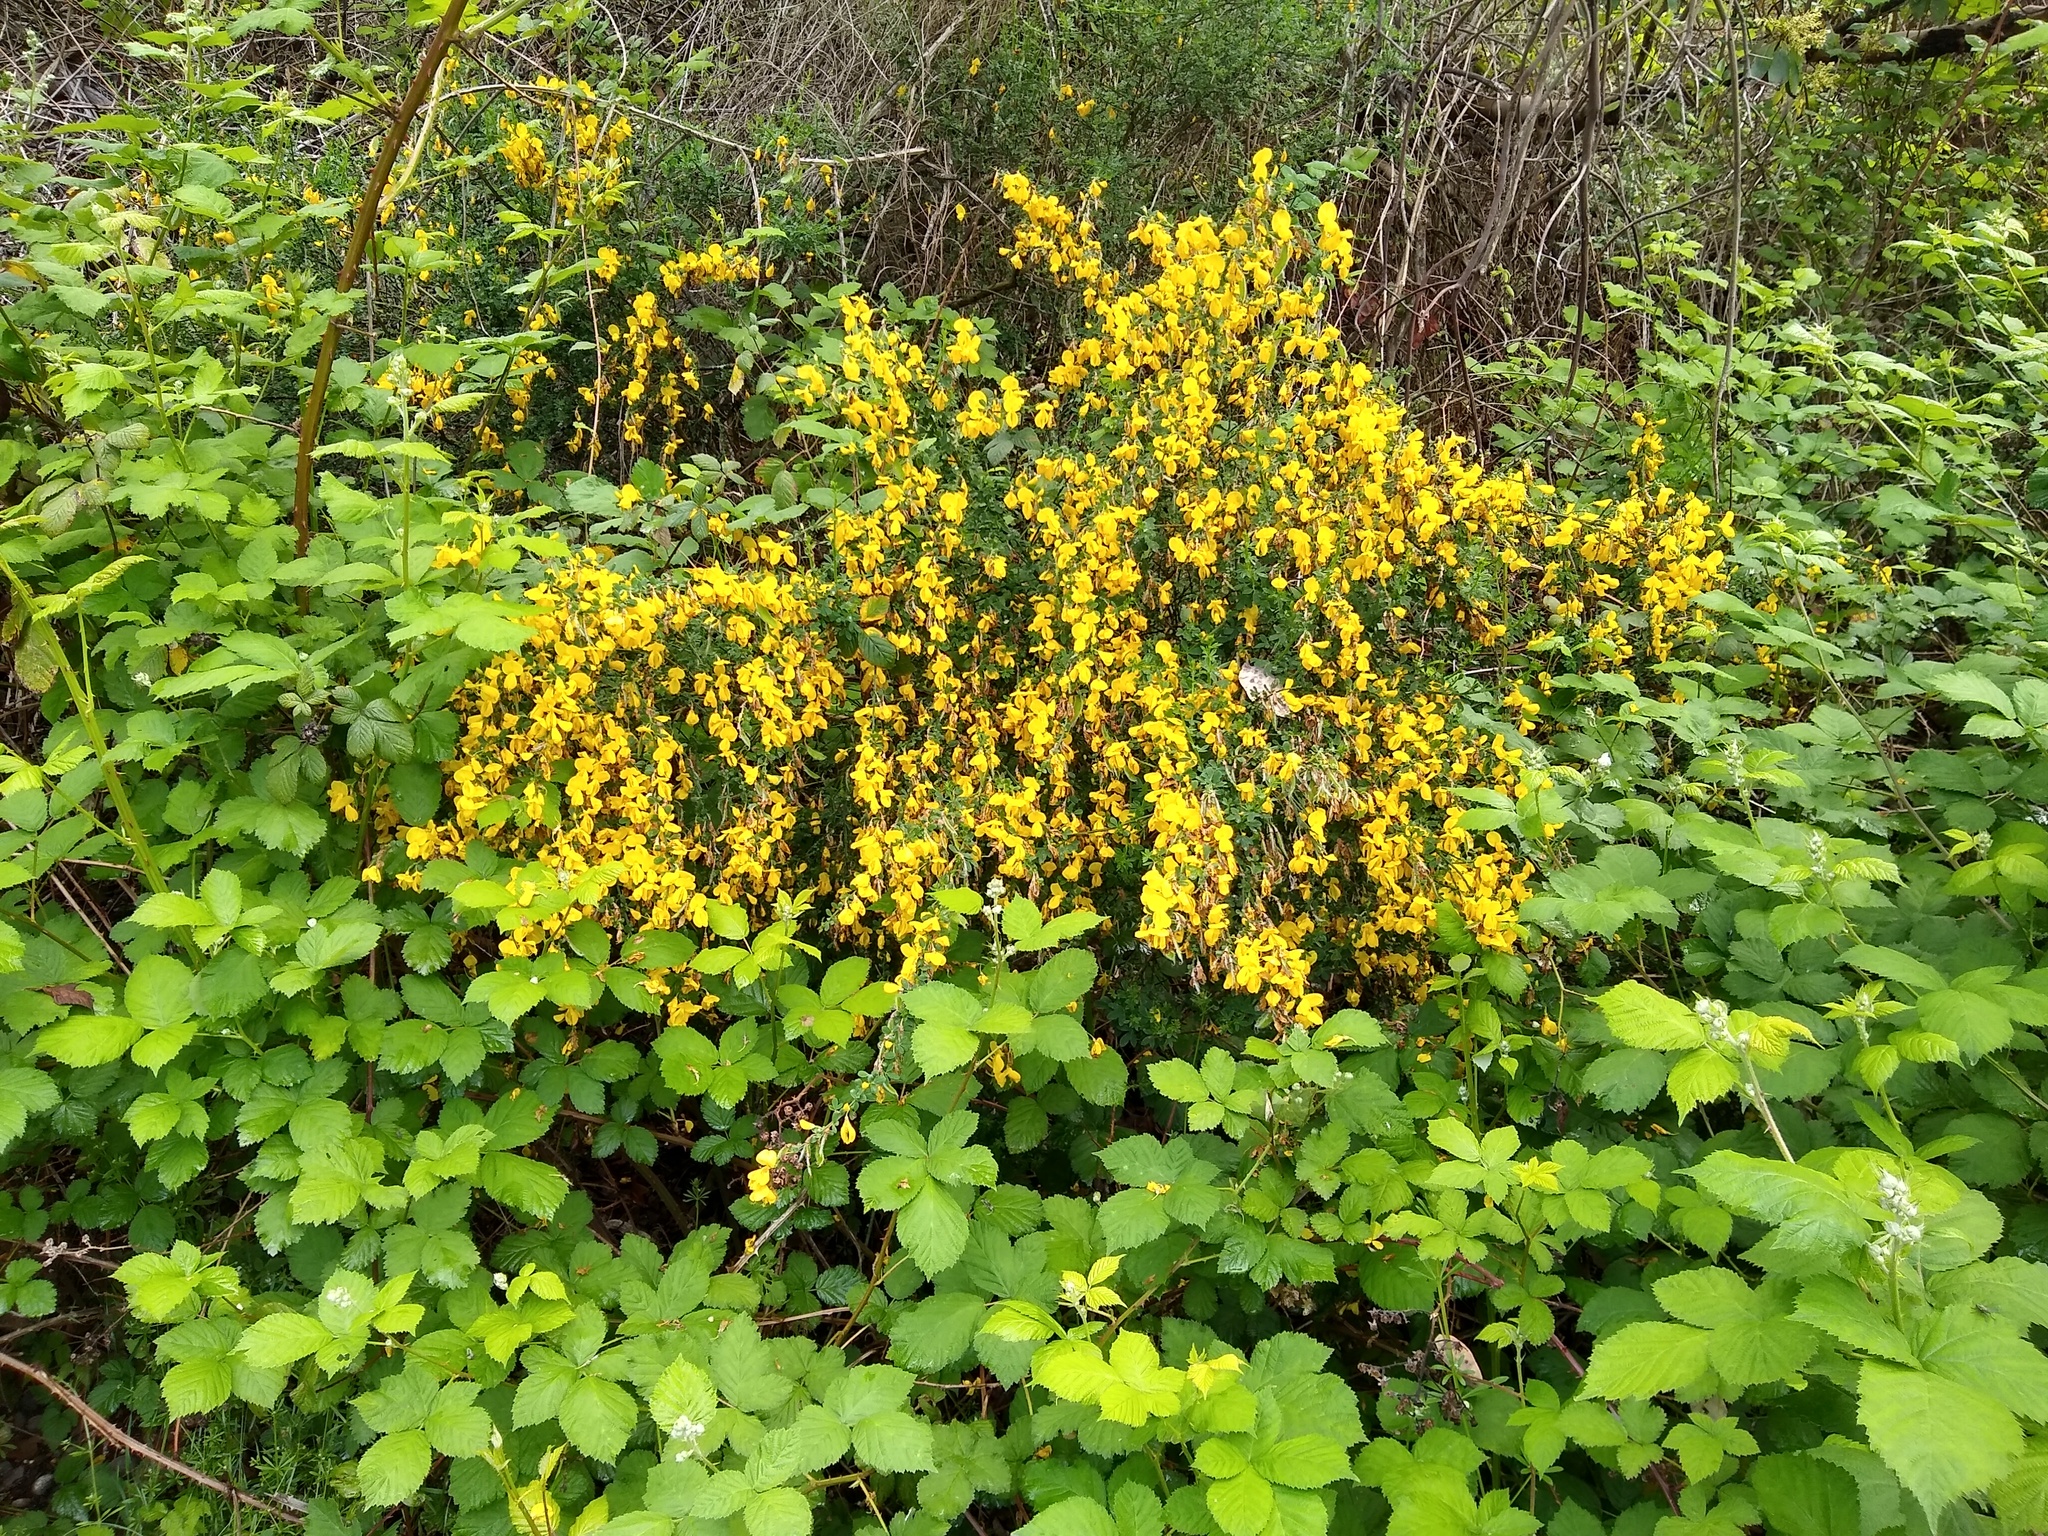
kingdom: Plantae
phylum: Tracheophyta
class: Magnoliopsida
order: Fabales
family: Fabaceae
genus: Cytisus
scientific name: Cytisus scoparius
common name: Scotch broom
